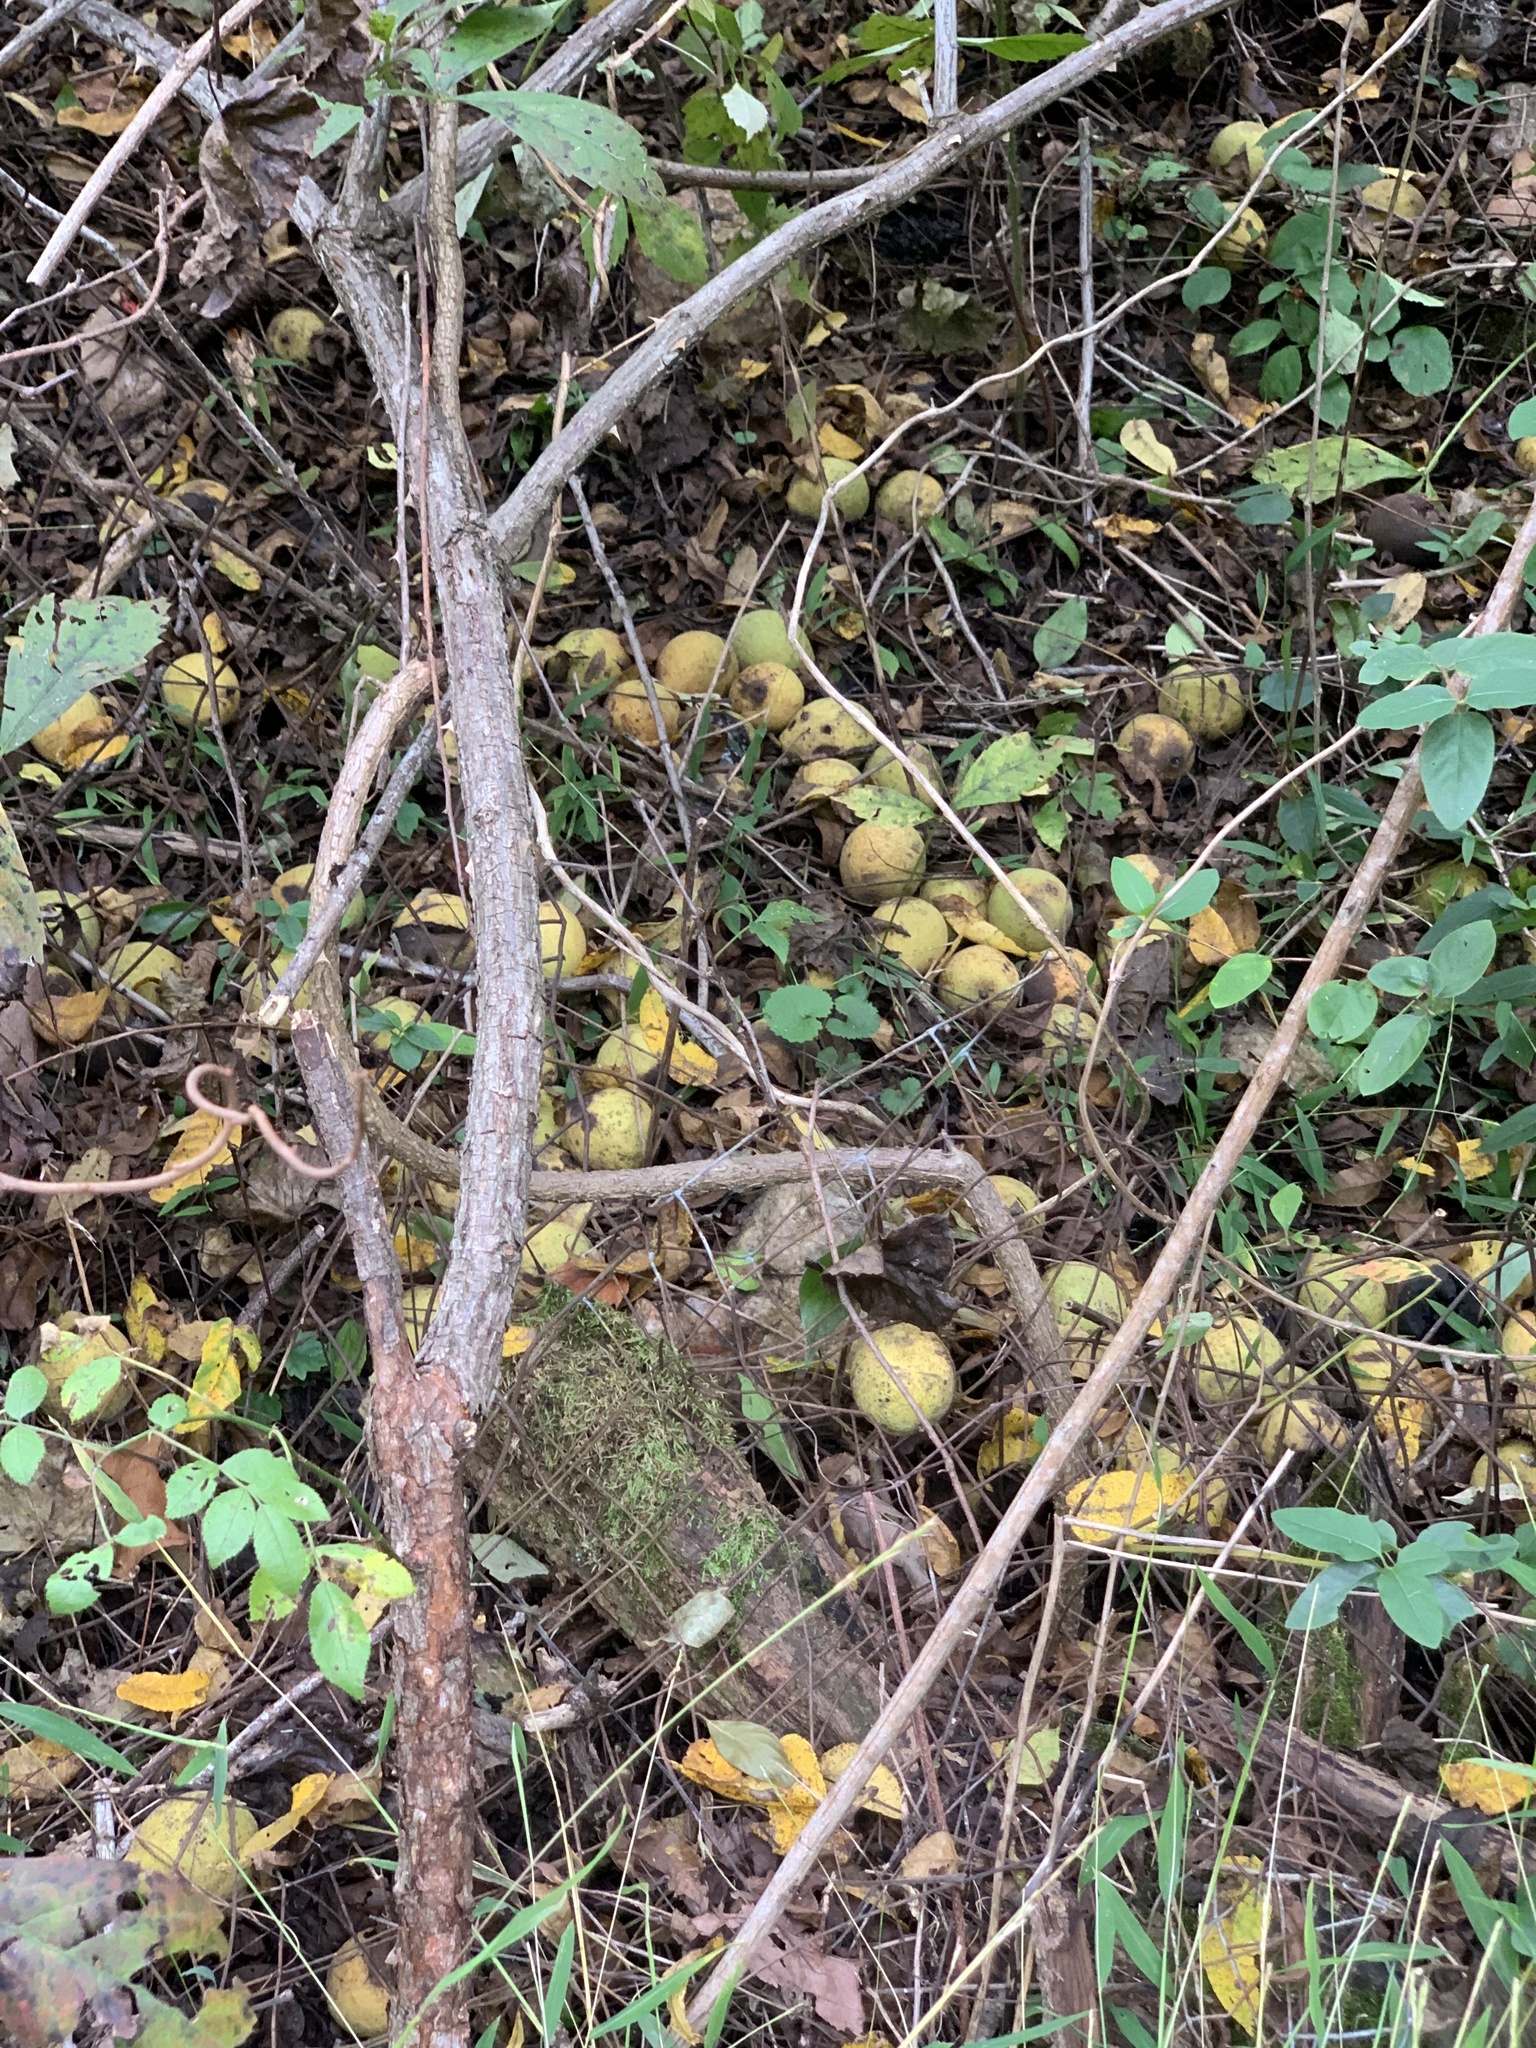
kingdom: Plantae
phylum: Tracheophyta
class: Magnoliopsida
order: Fagales
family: Juglandaceae
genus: Juglans
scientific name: Juglans nigra
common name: Black walnut
